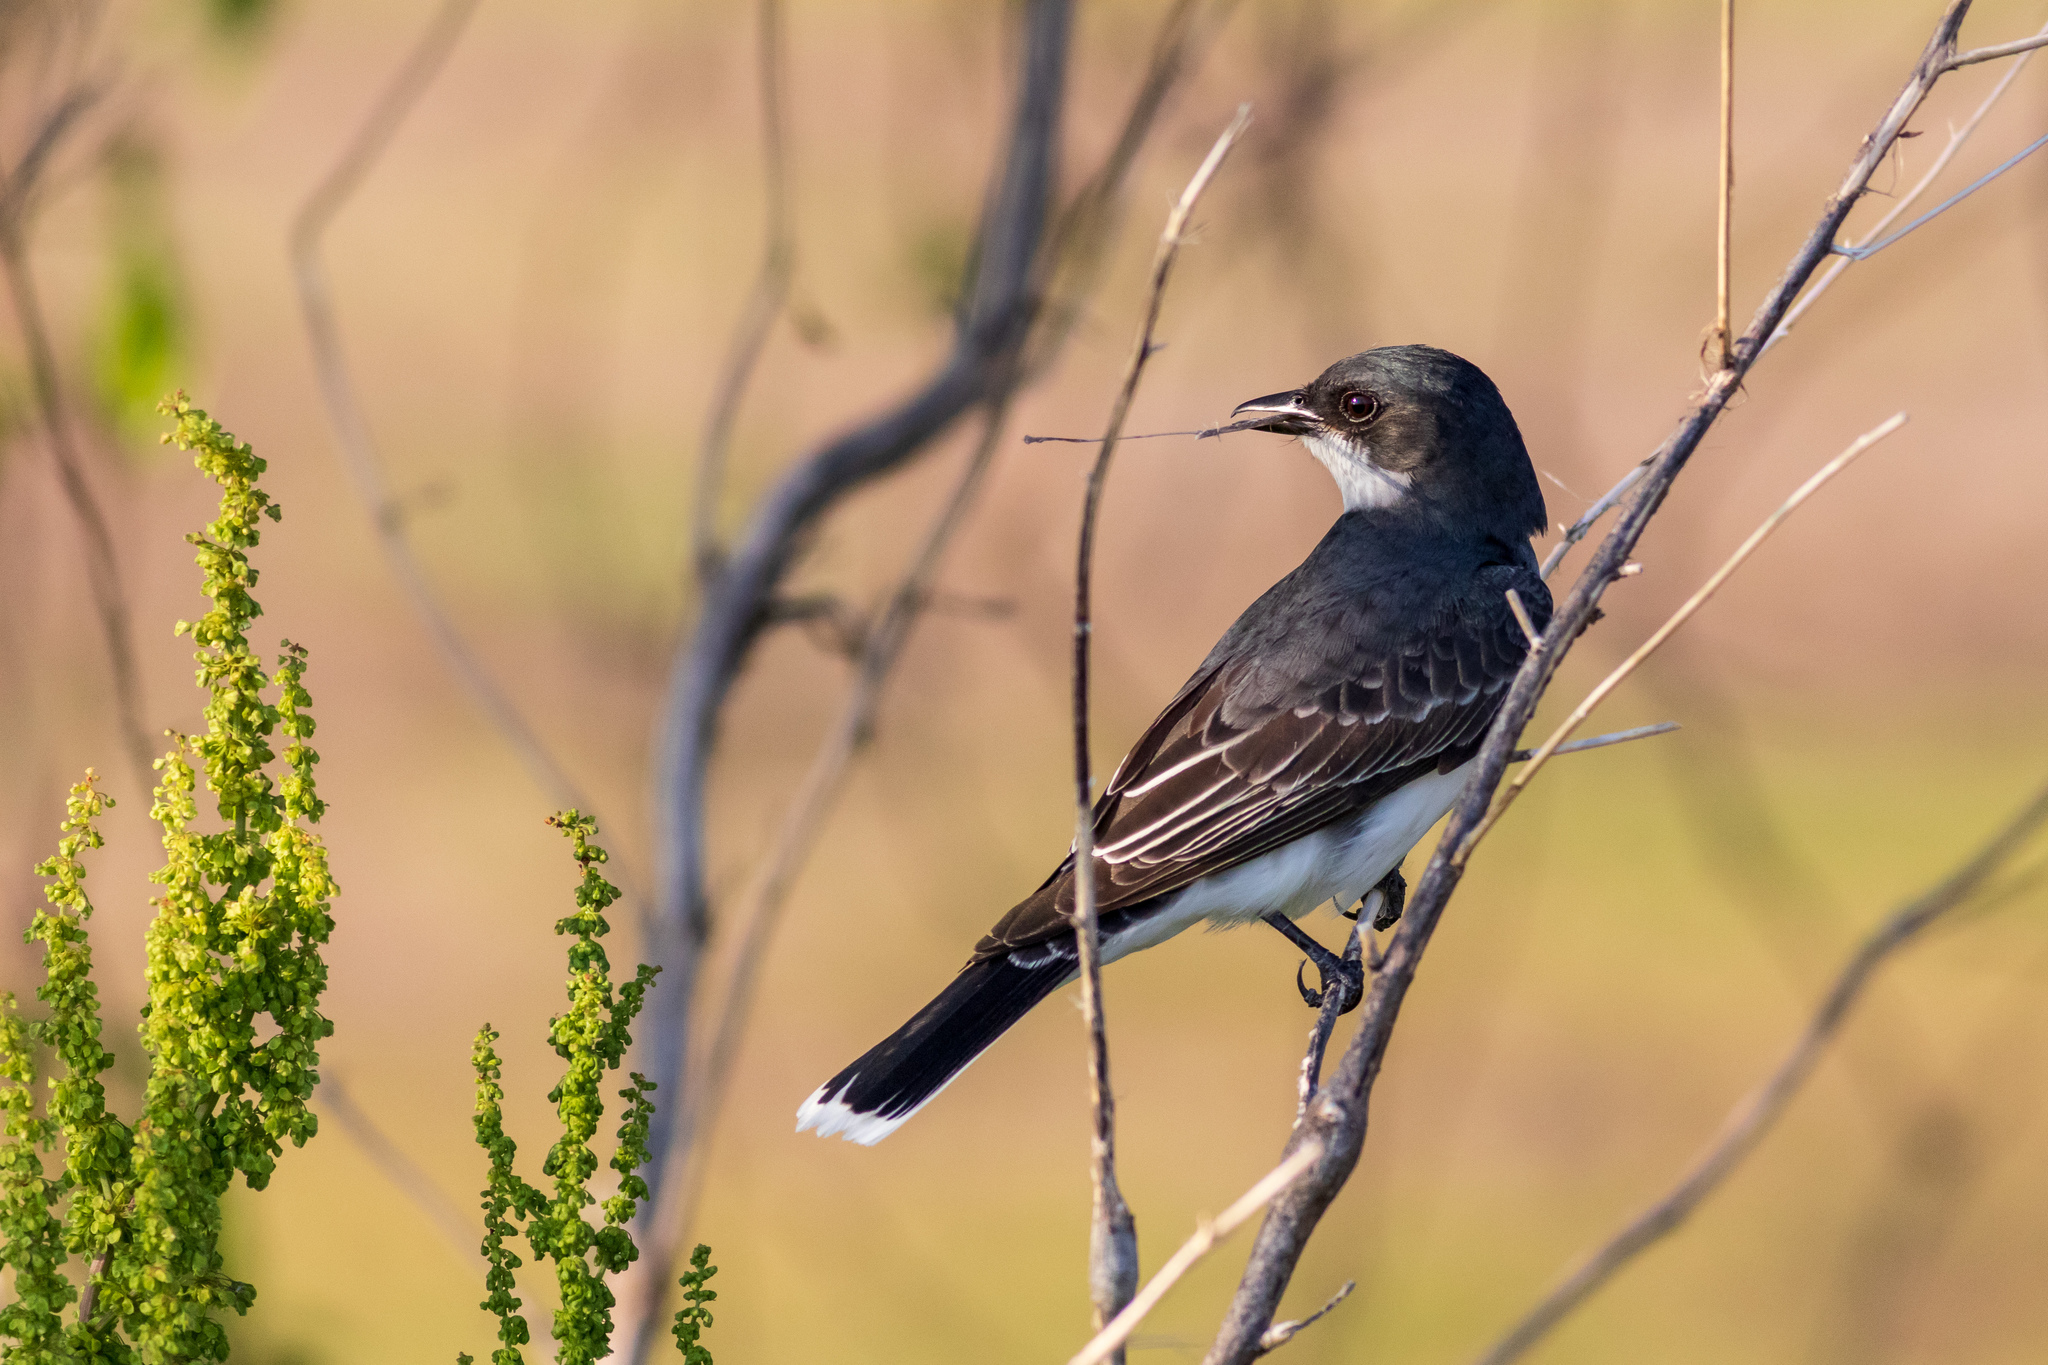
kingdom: Animalia
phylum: Chordata
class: Aves
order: Passeriformes
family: Tyrannidae
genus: Tyrannus
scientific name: Tyrannus tyrannus
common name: Eastern kingbird
